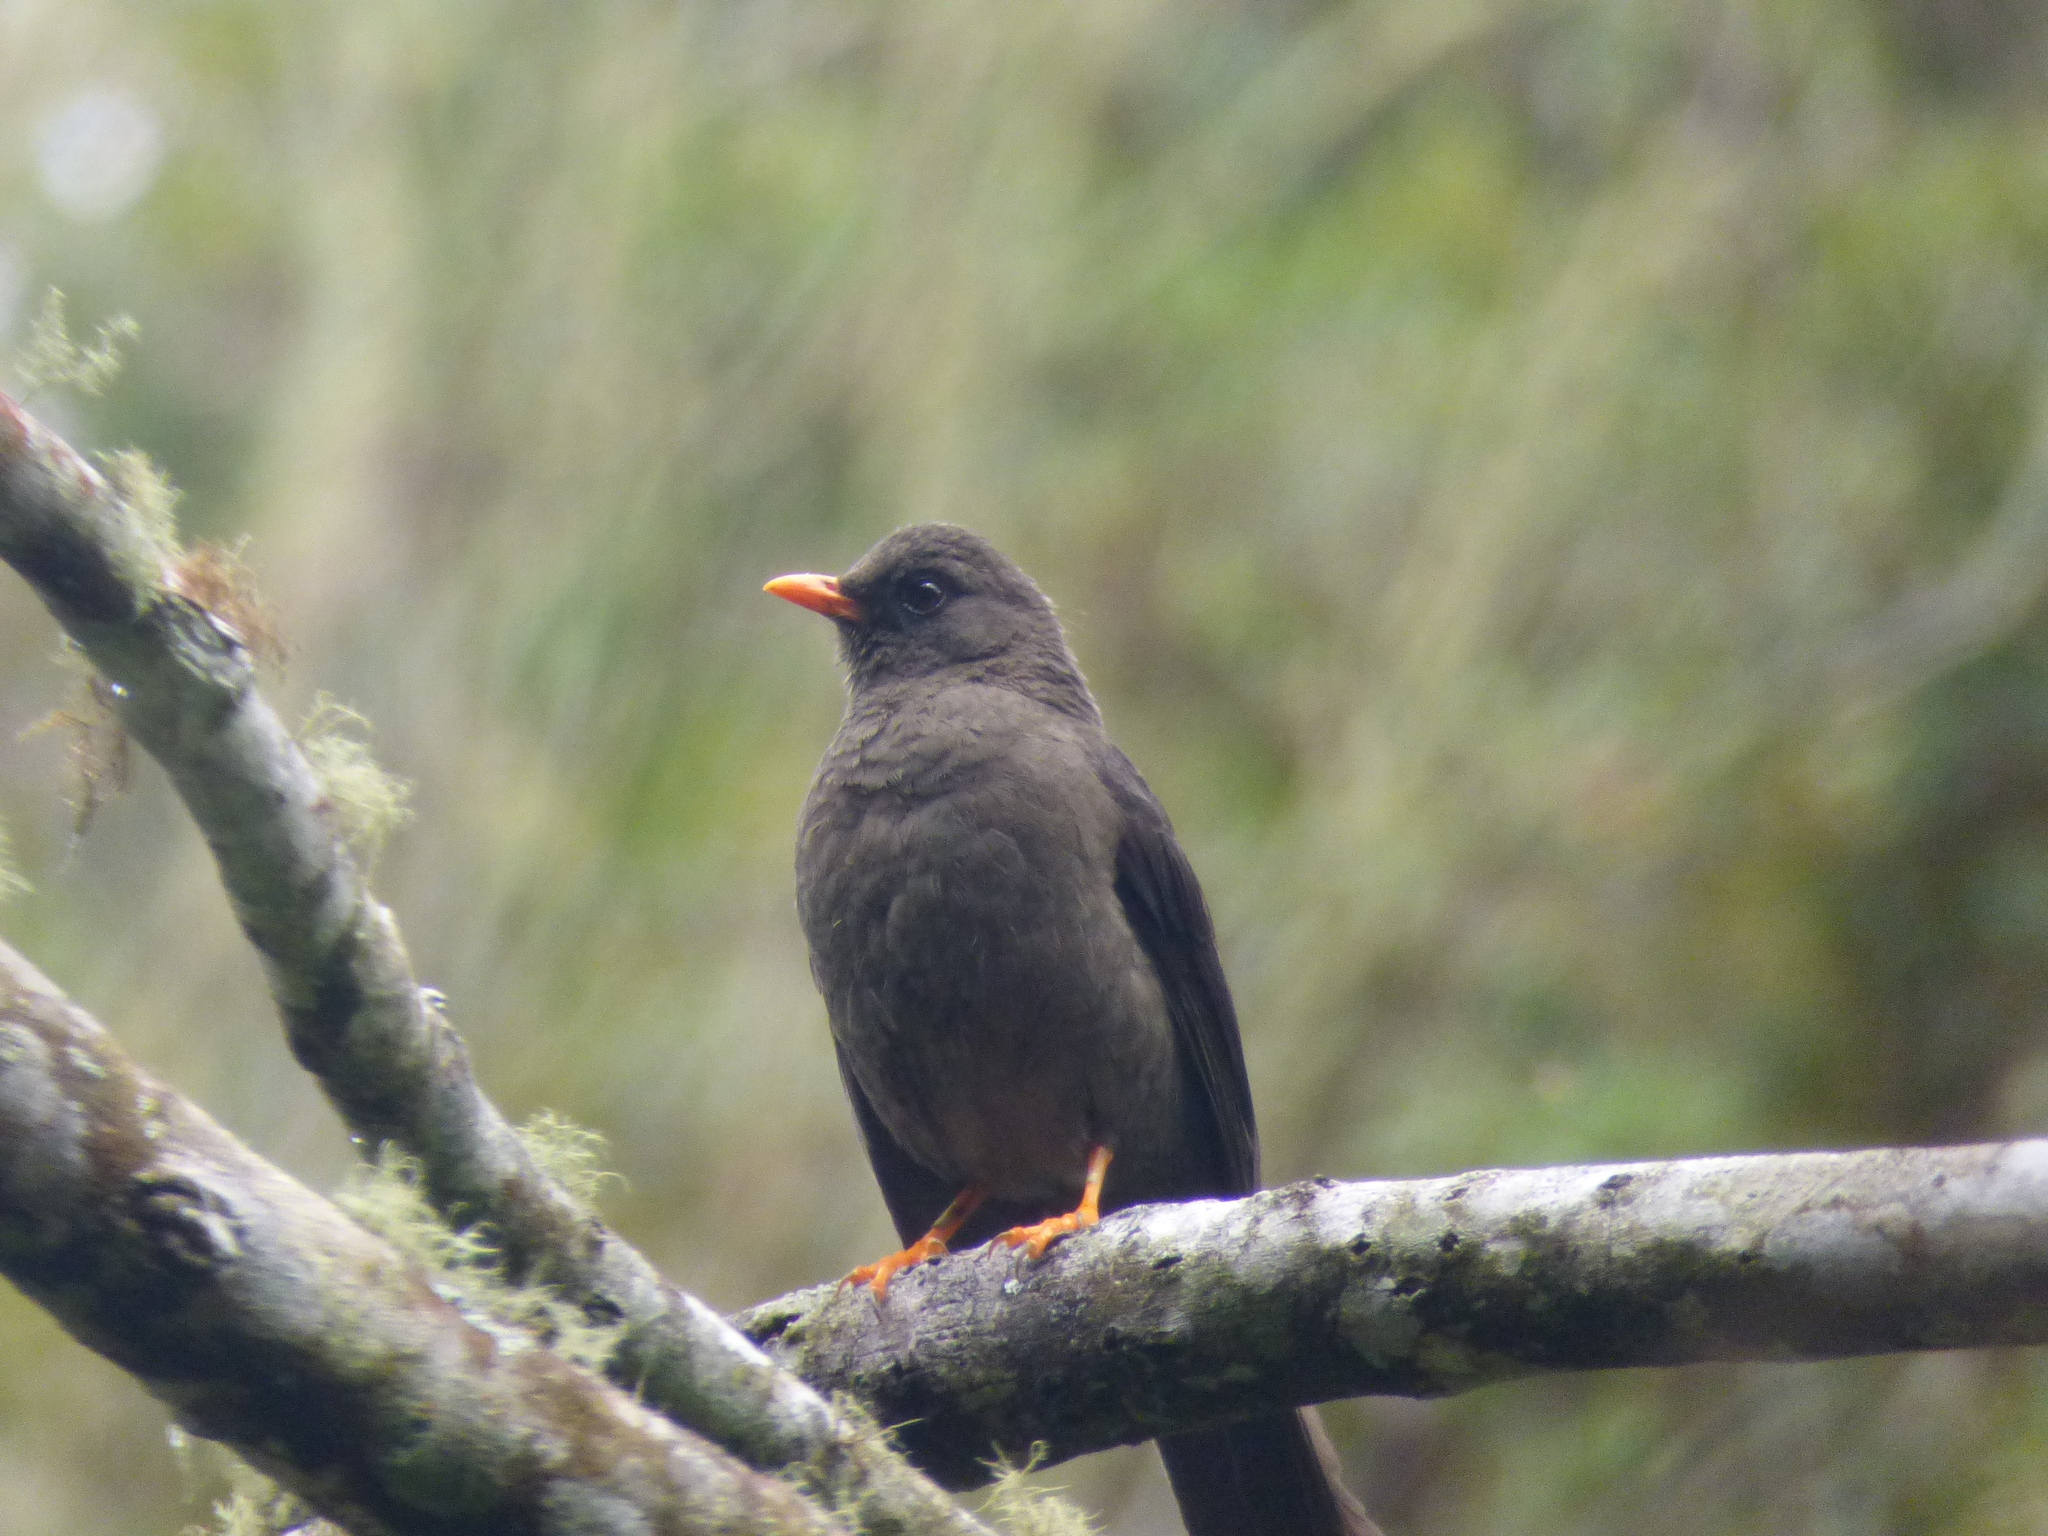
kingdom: Animalia
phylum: Chordata
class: Aves
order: Passeriformes
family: Turdidae
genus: Turdus
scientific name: Turdus fuscater
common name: Great thrush
